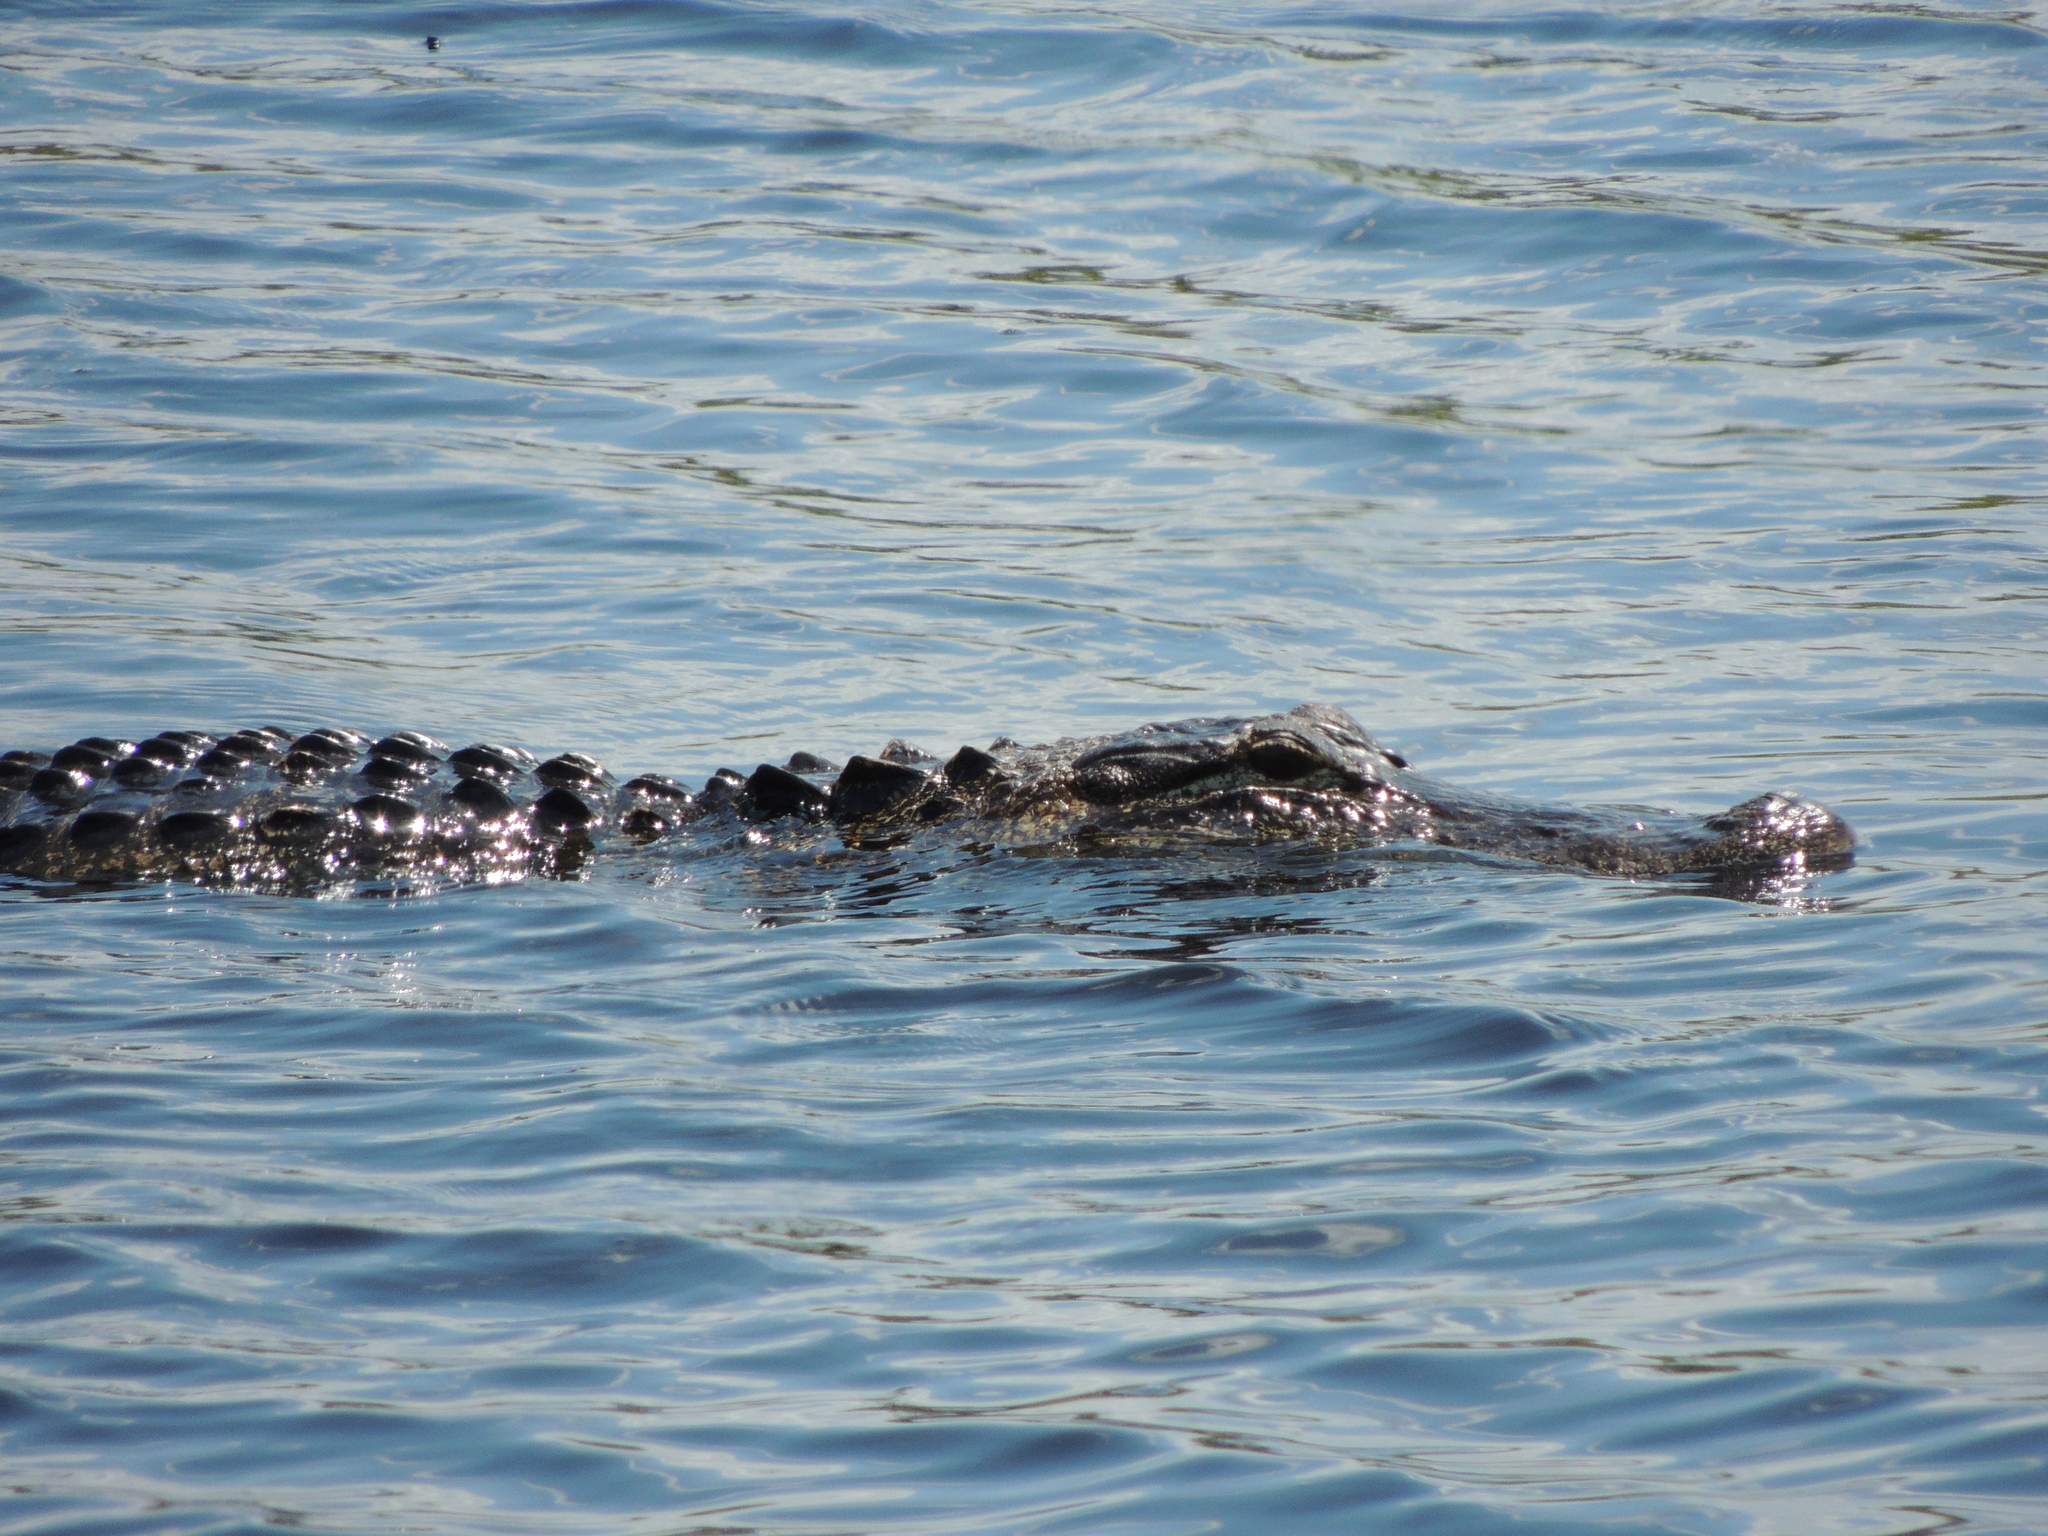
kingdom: Animalia
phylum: Chordata
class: Crocodylia
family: Alligatoridae
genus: Alligator
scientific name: Alligator mississippiensis
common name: American alligator
